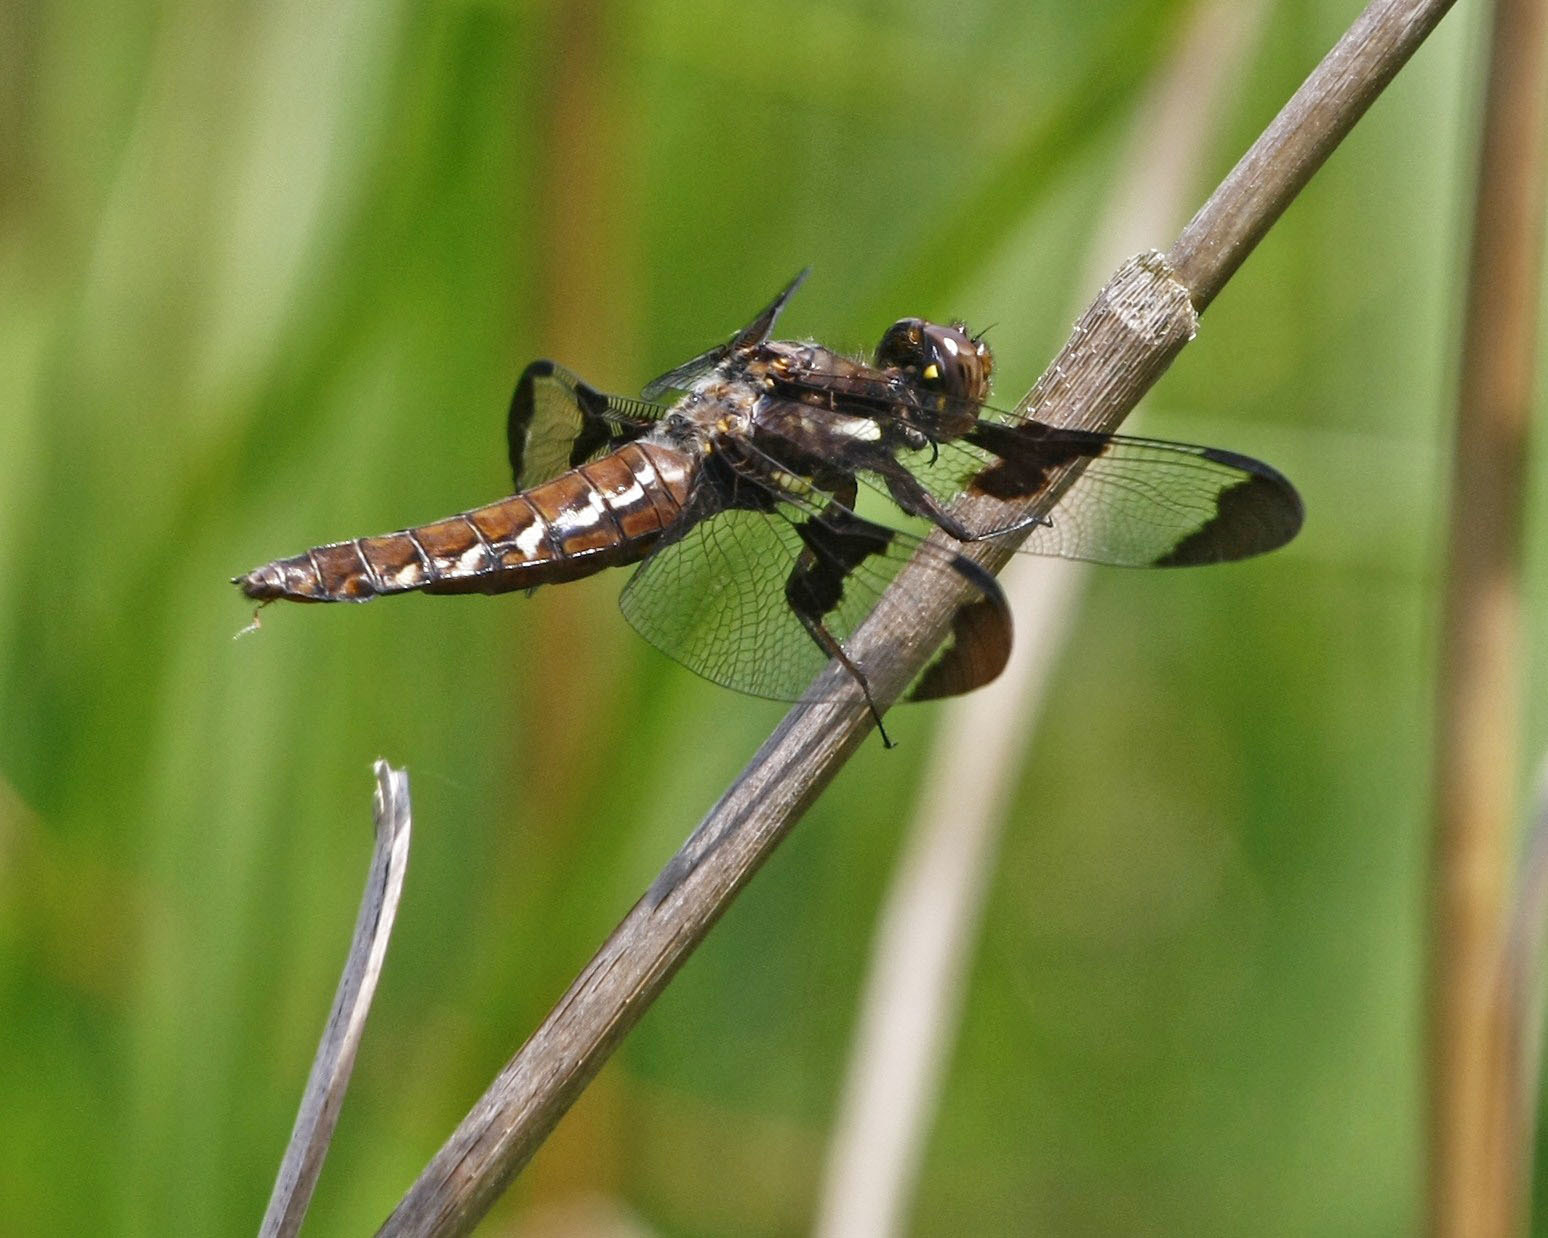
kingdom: Animalia
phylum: Arthropoda
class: Insecta
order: Odonata
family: Libellulidae
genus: Plathemis
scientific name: Plathemis lydia
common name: Common whitetail
